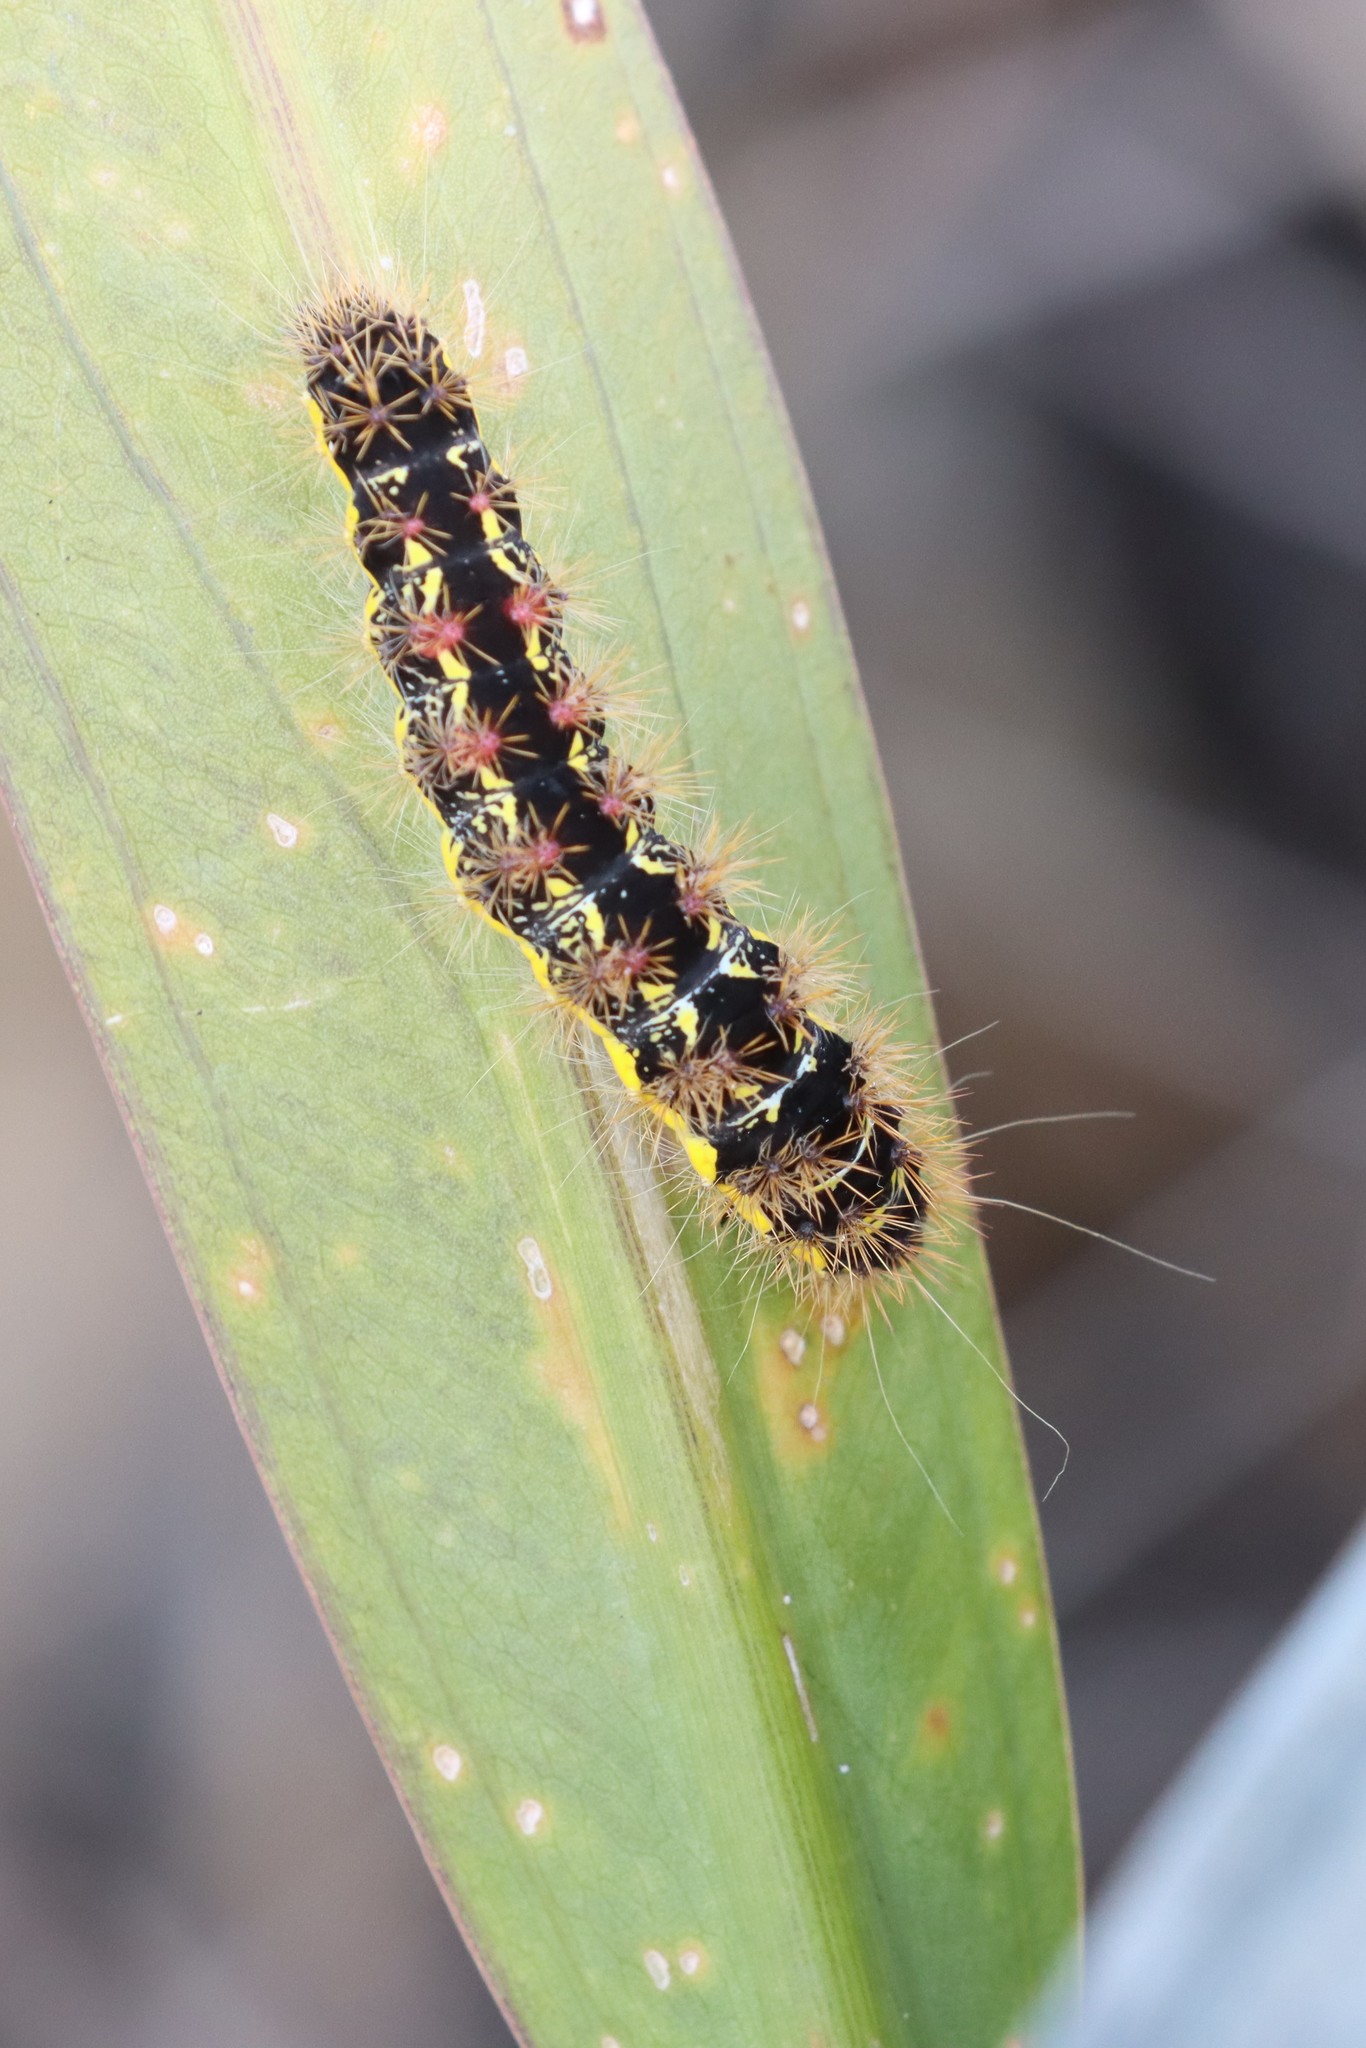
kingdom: Animalia
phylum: Arthropoda
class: Insecta
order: Lepidoptera
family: Noctuidae
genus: Acronicta
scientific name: Acronicta oblinita
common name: Smeared dagger
